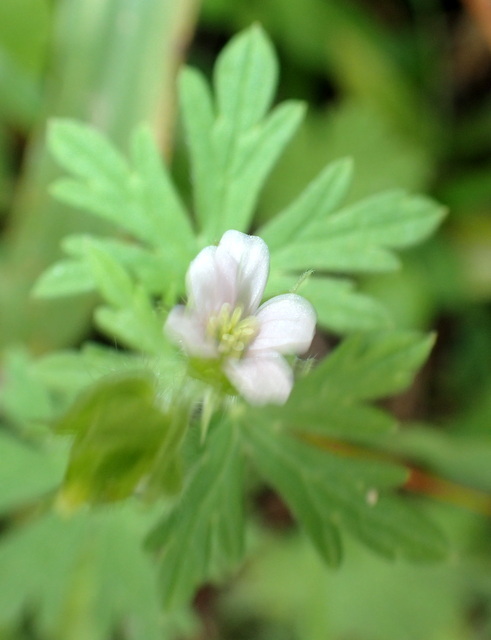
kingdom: Plantae
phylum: Tracheophyta
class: Magnoliopsida
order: Geraniales
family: Geraniaceae
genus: Geranium
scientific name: Geranium carolinianum
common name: Carolina crane's-bill
